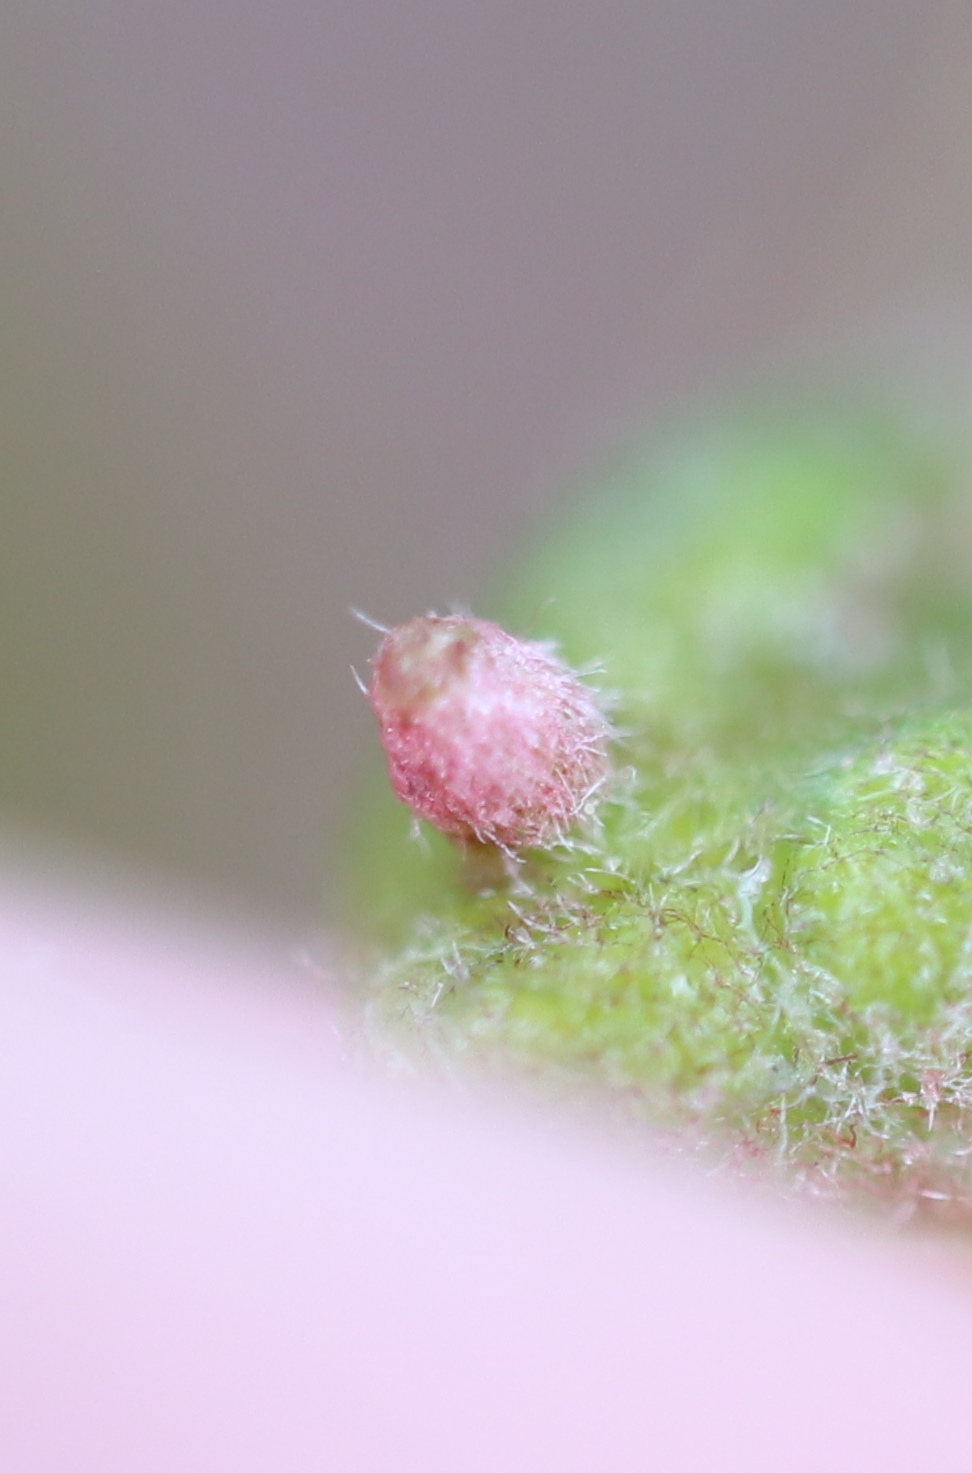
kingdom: Animalia
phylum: Arthropoda
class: Insecta
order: Hymenoptera
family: Cynipidae
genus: Neuroterus
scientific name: Neuroterus
